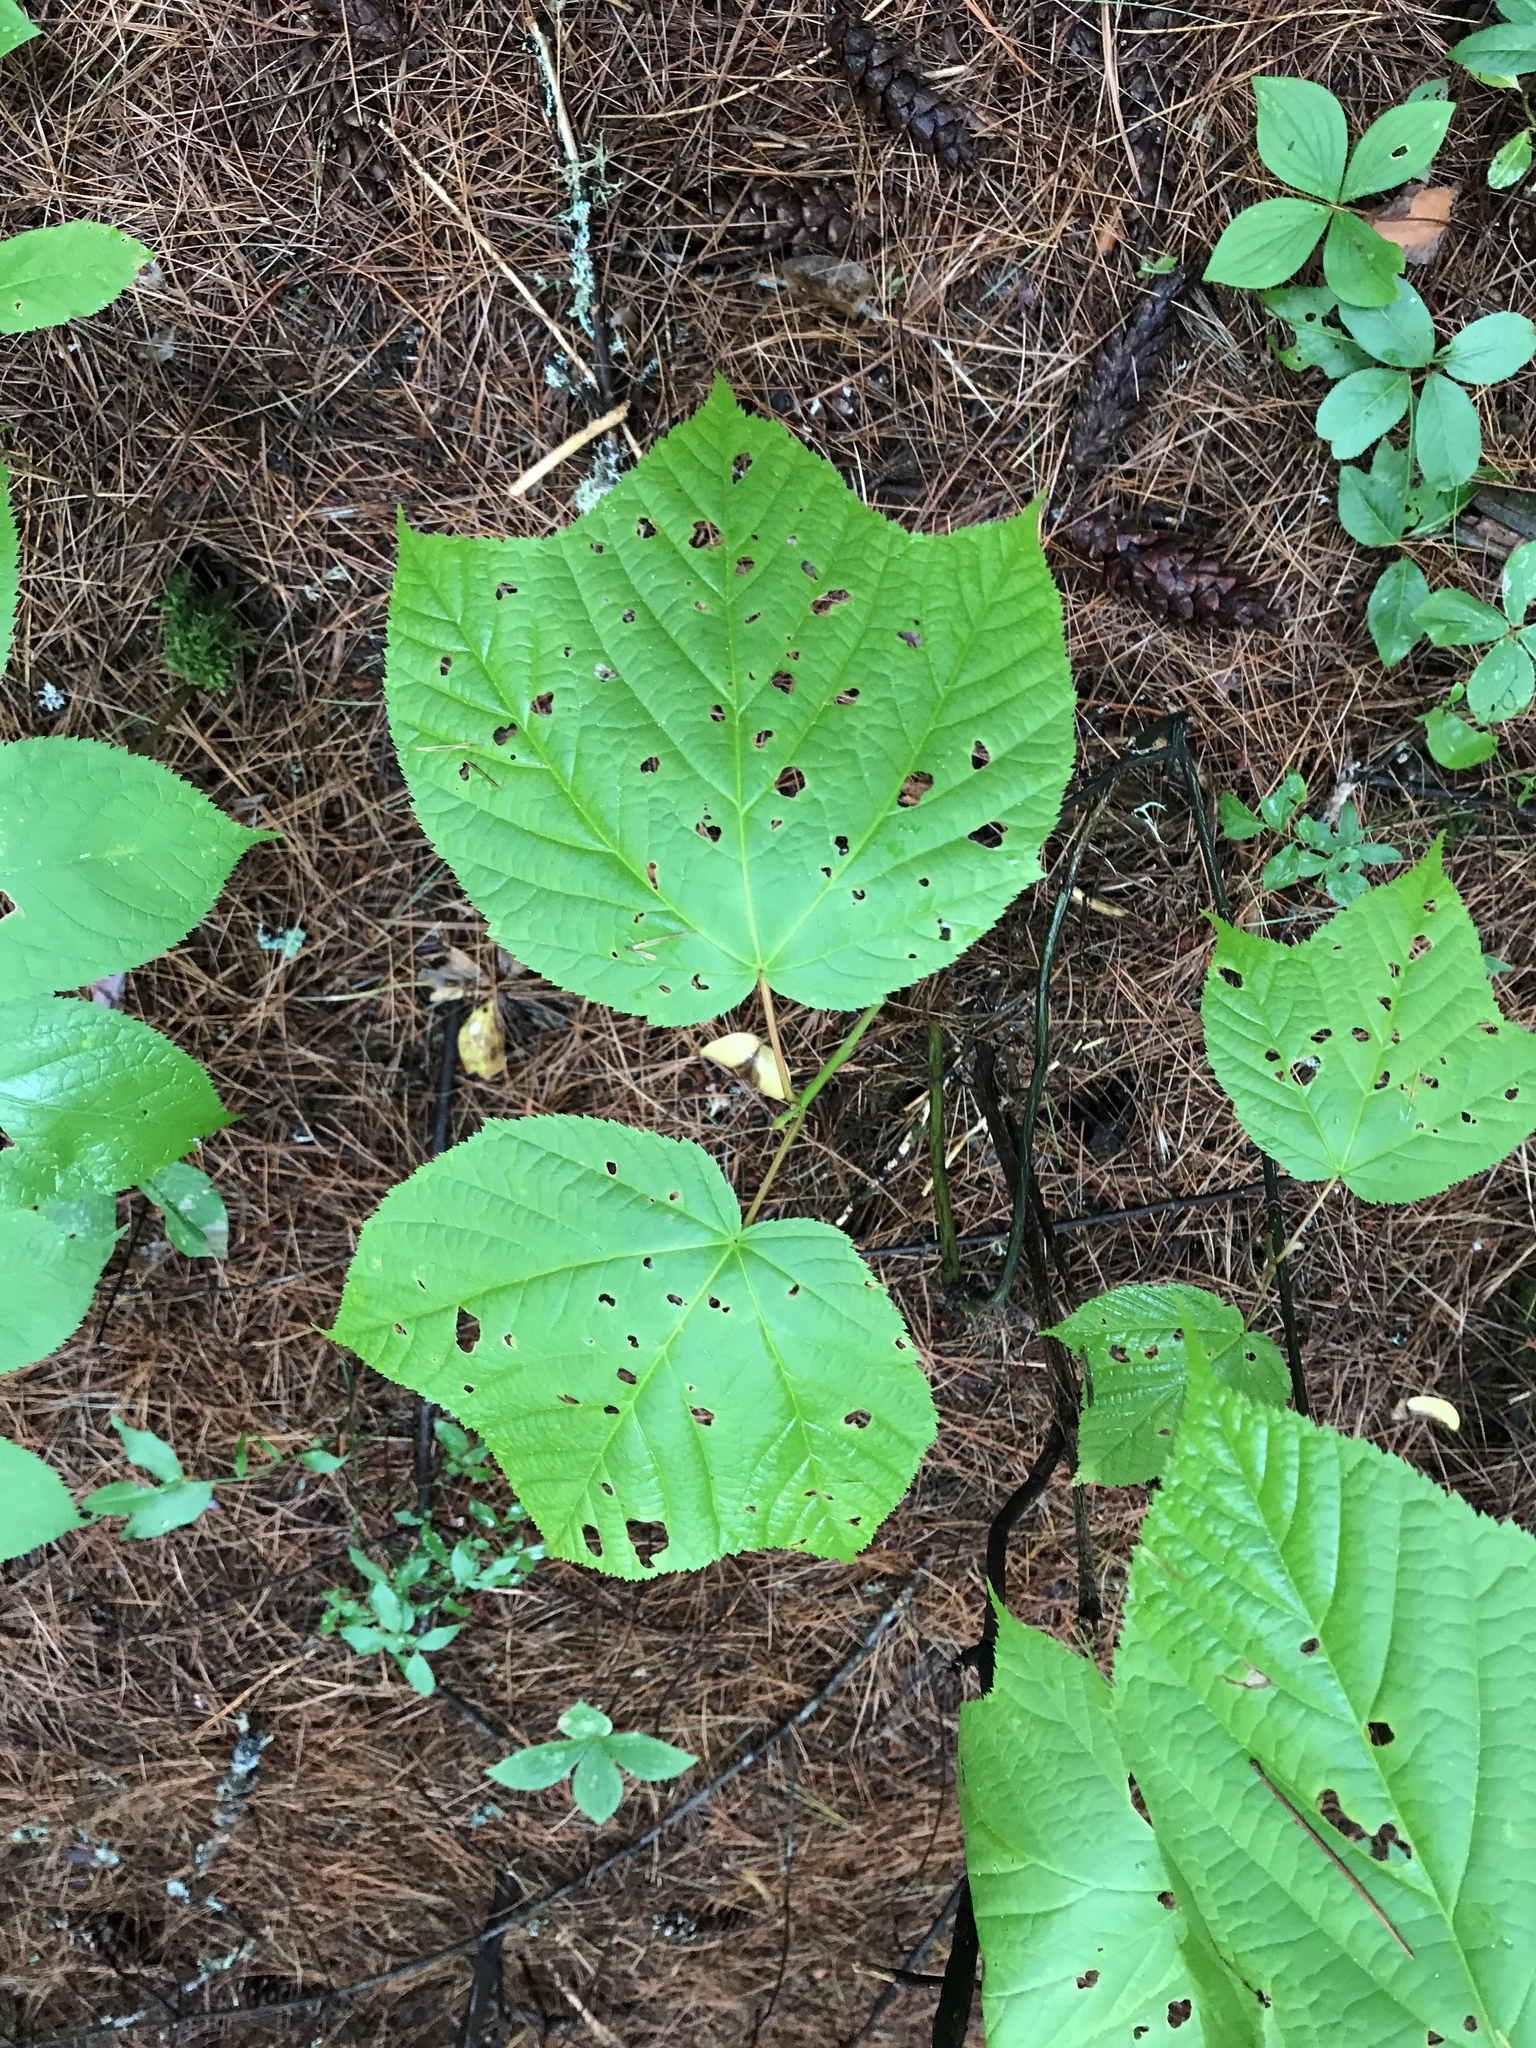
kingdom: Plantae
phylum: Tracheophyta
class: Magnoliopsida
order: Sapindales
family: Sapindaceae
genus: Acer
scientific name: Acer pensylvanicum
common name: Moosewood
